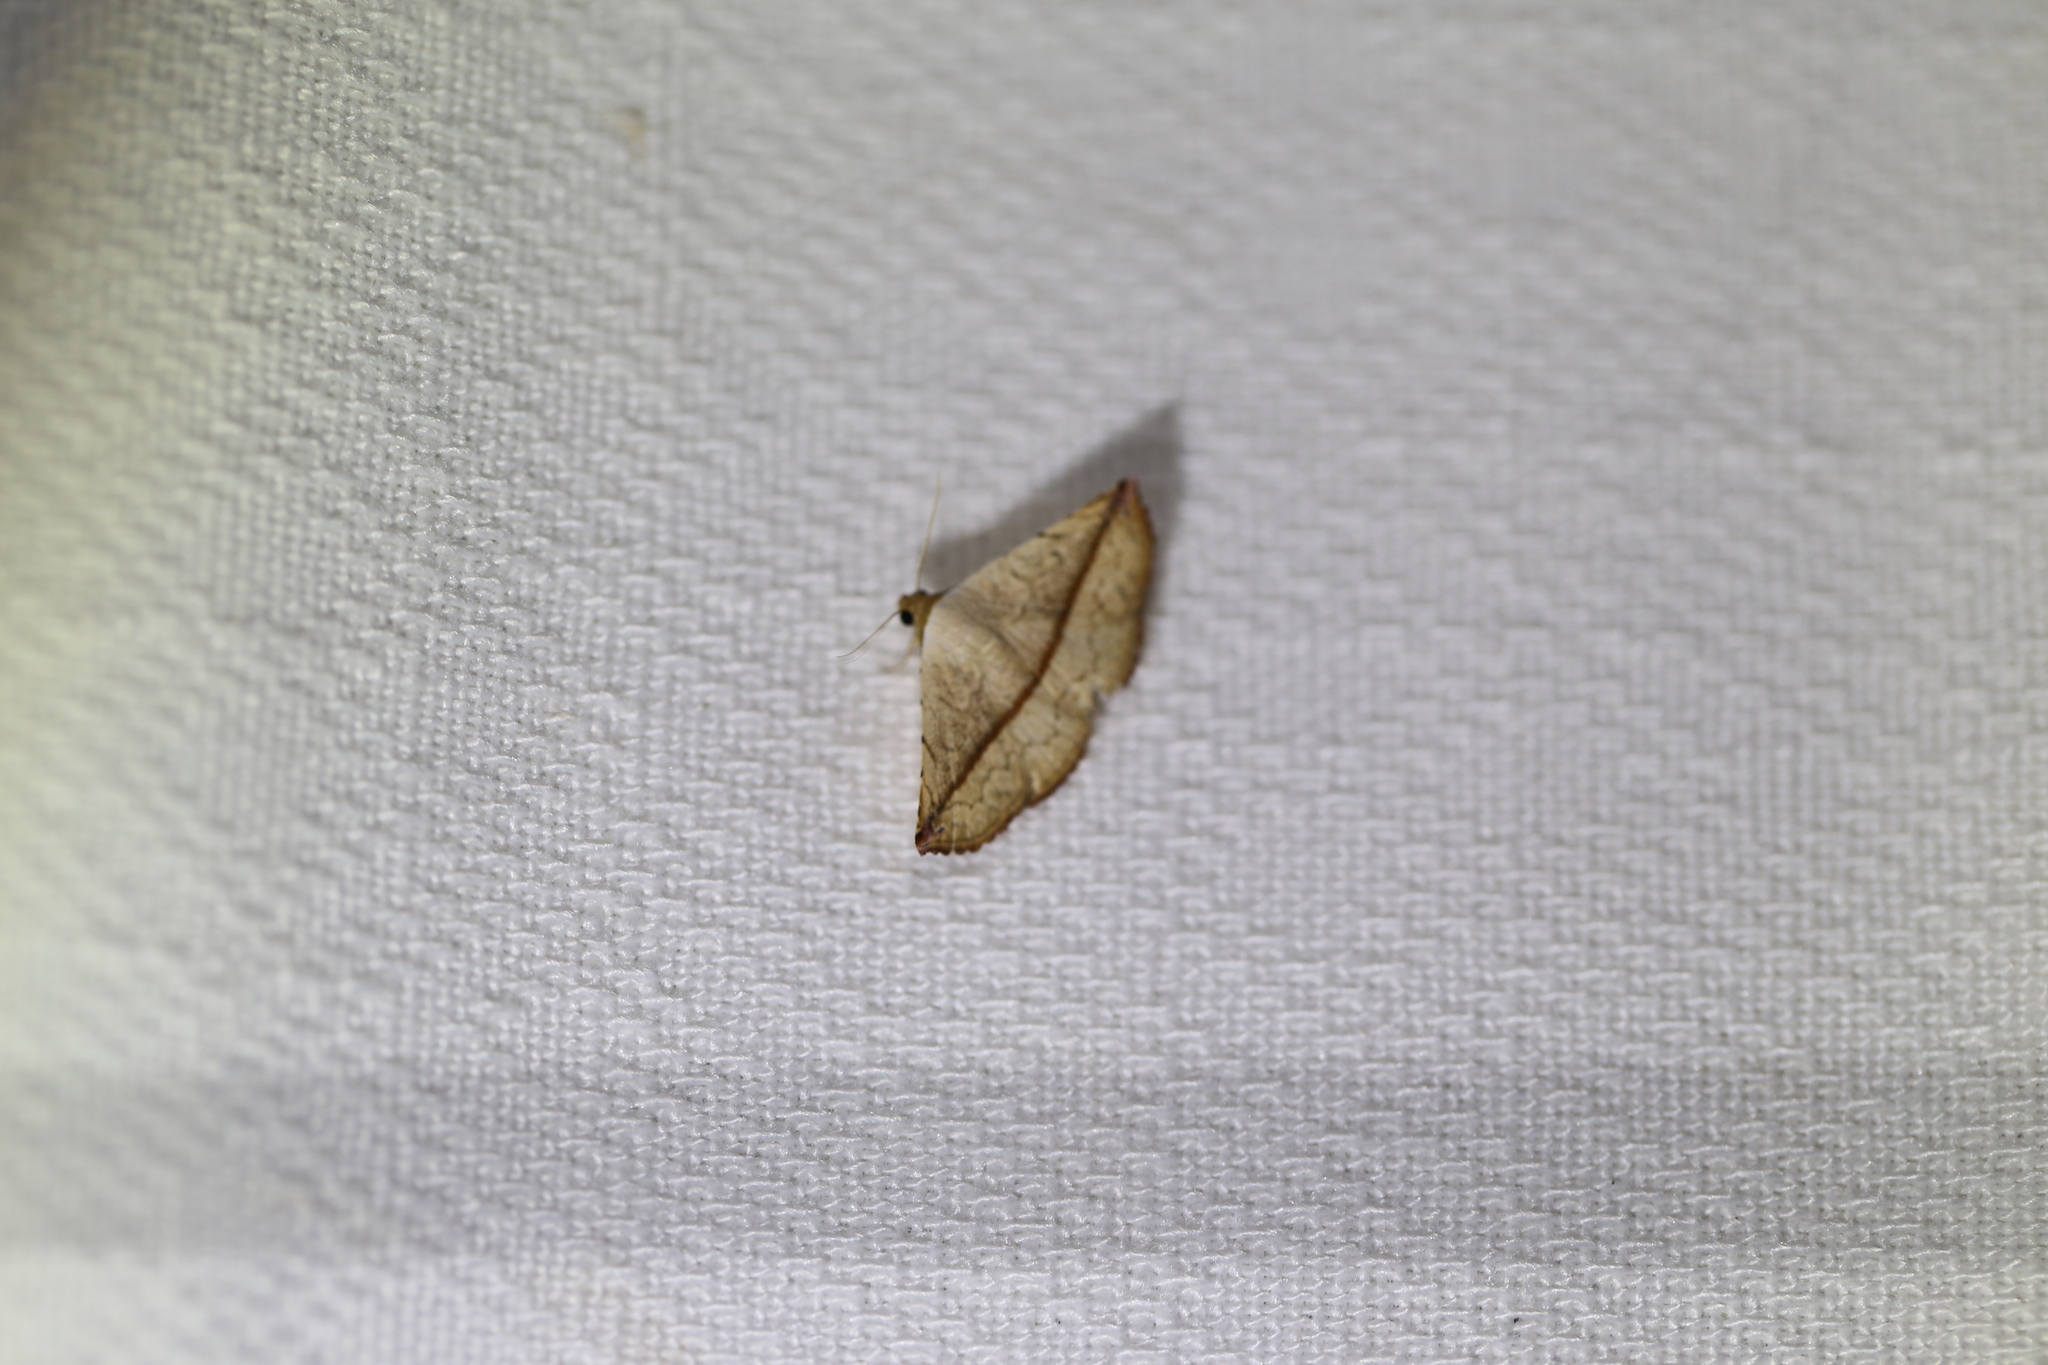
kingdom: Animalia
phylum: Arthropoda
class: Insecta
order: Lepidoptera
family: Noctuidae
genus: Eublemma
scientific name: Eublemma perversicolor
